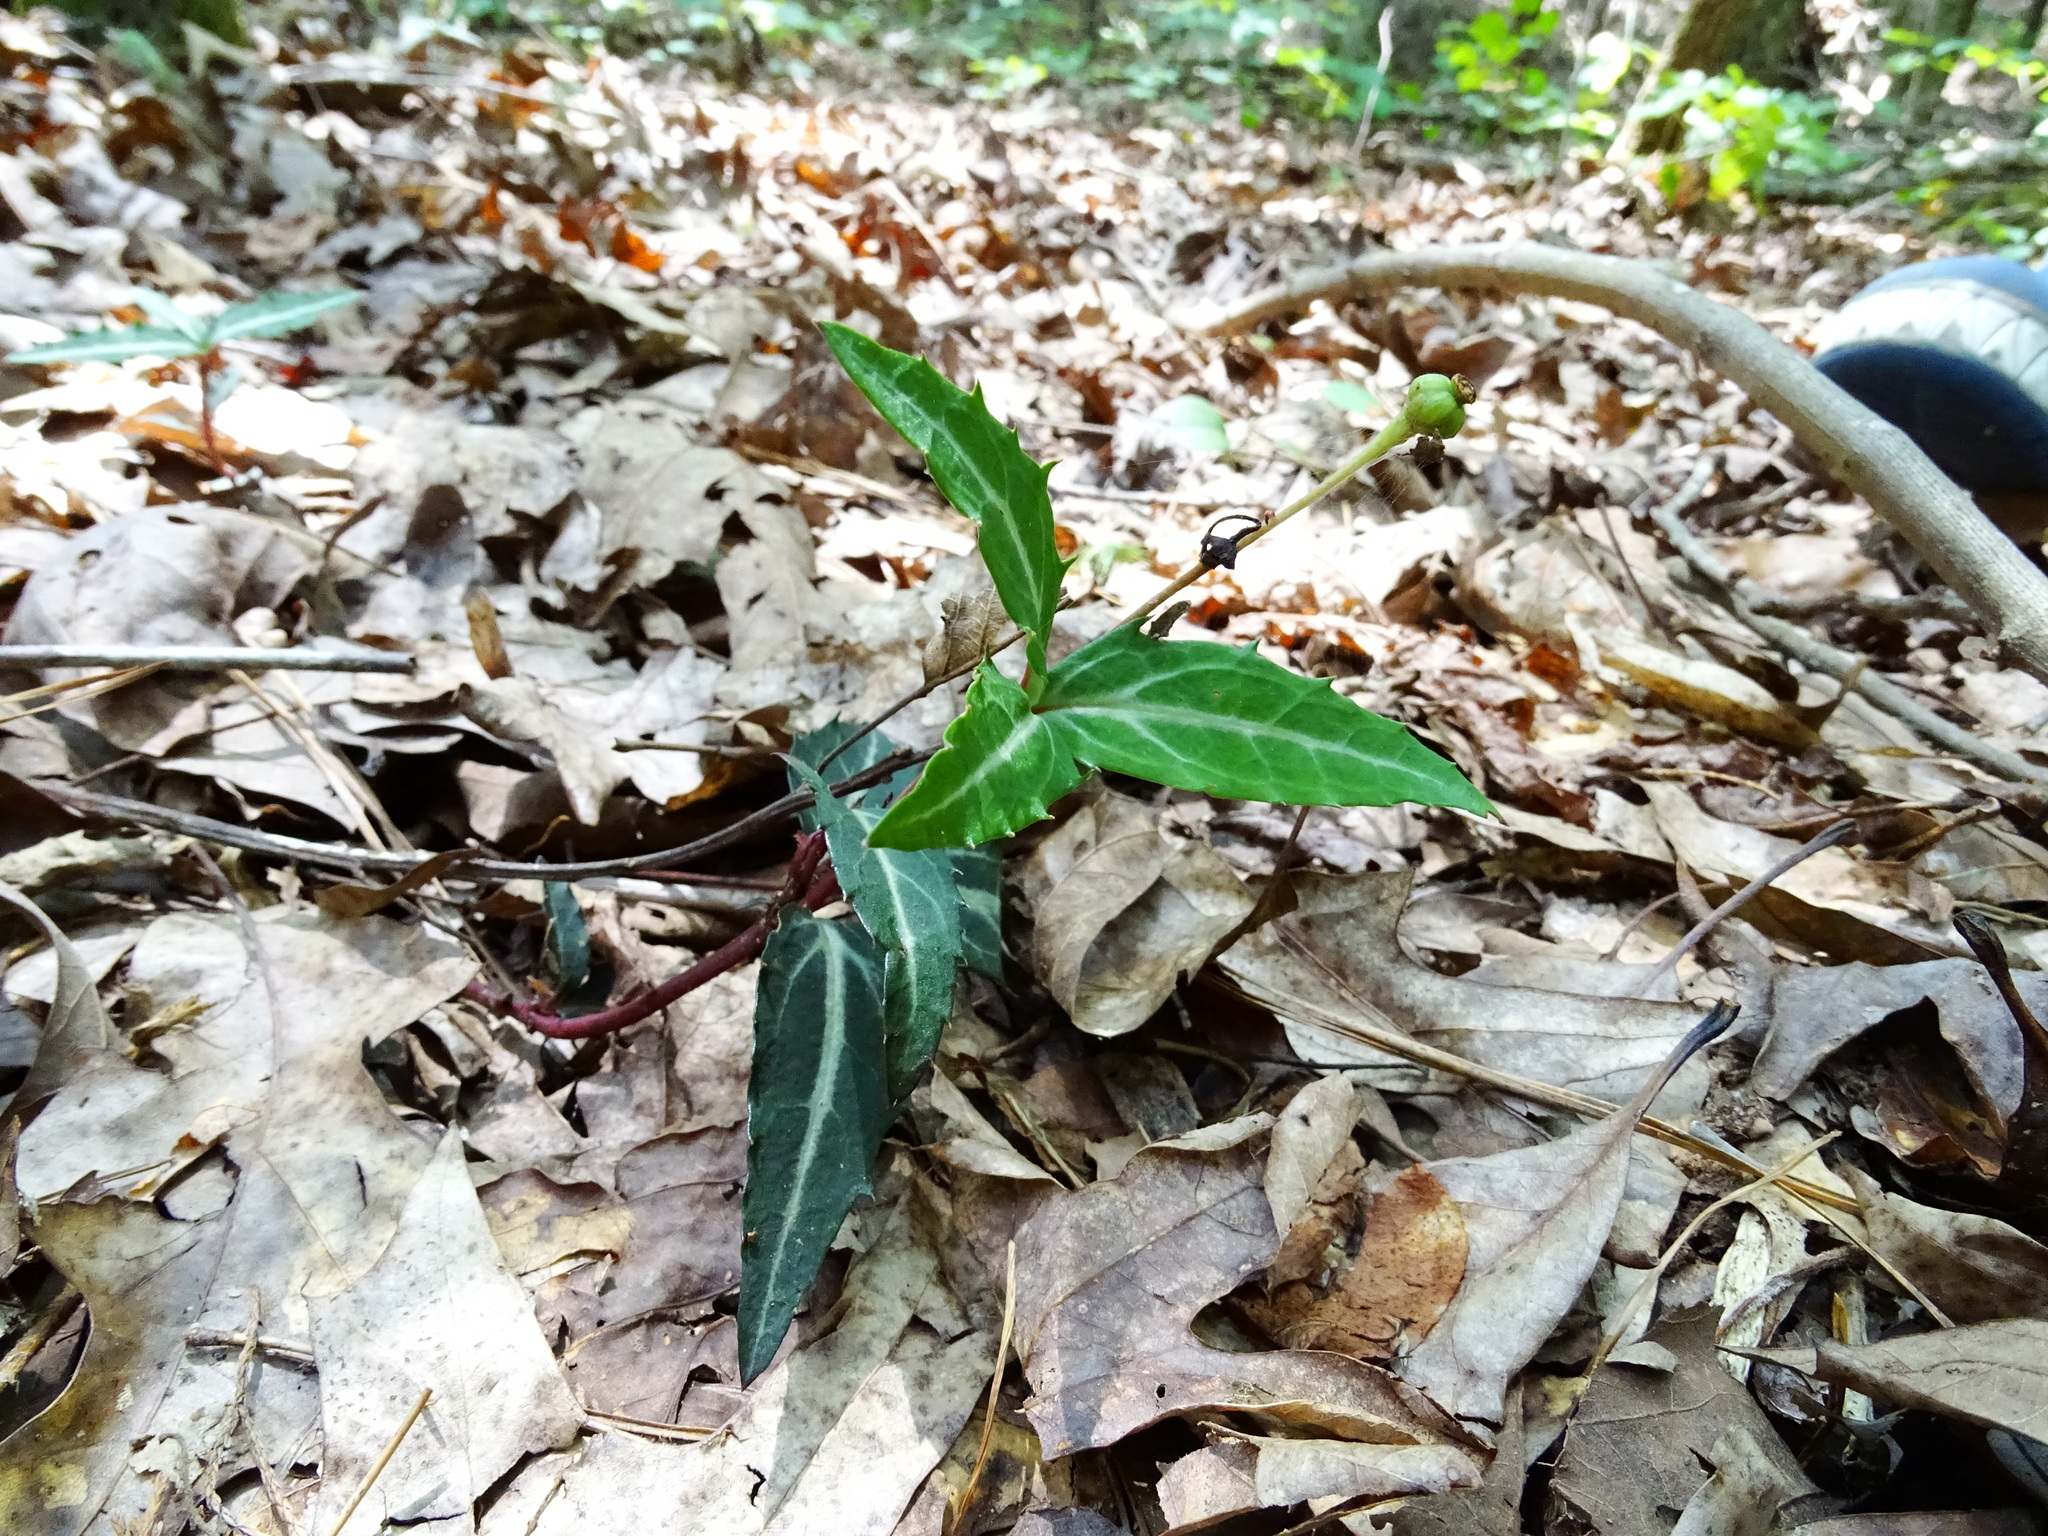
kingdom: Plantae
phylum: Tracheophyta
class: Magnoliopsida
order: Ericales
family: Ericaceae
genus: Chimaphila
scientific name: Chimaphila maculata
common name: Spotted pipsissewa
